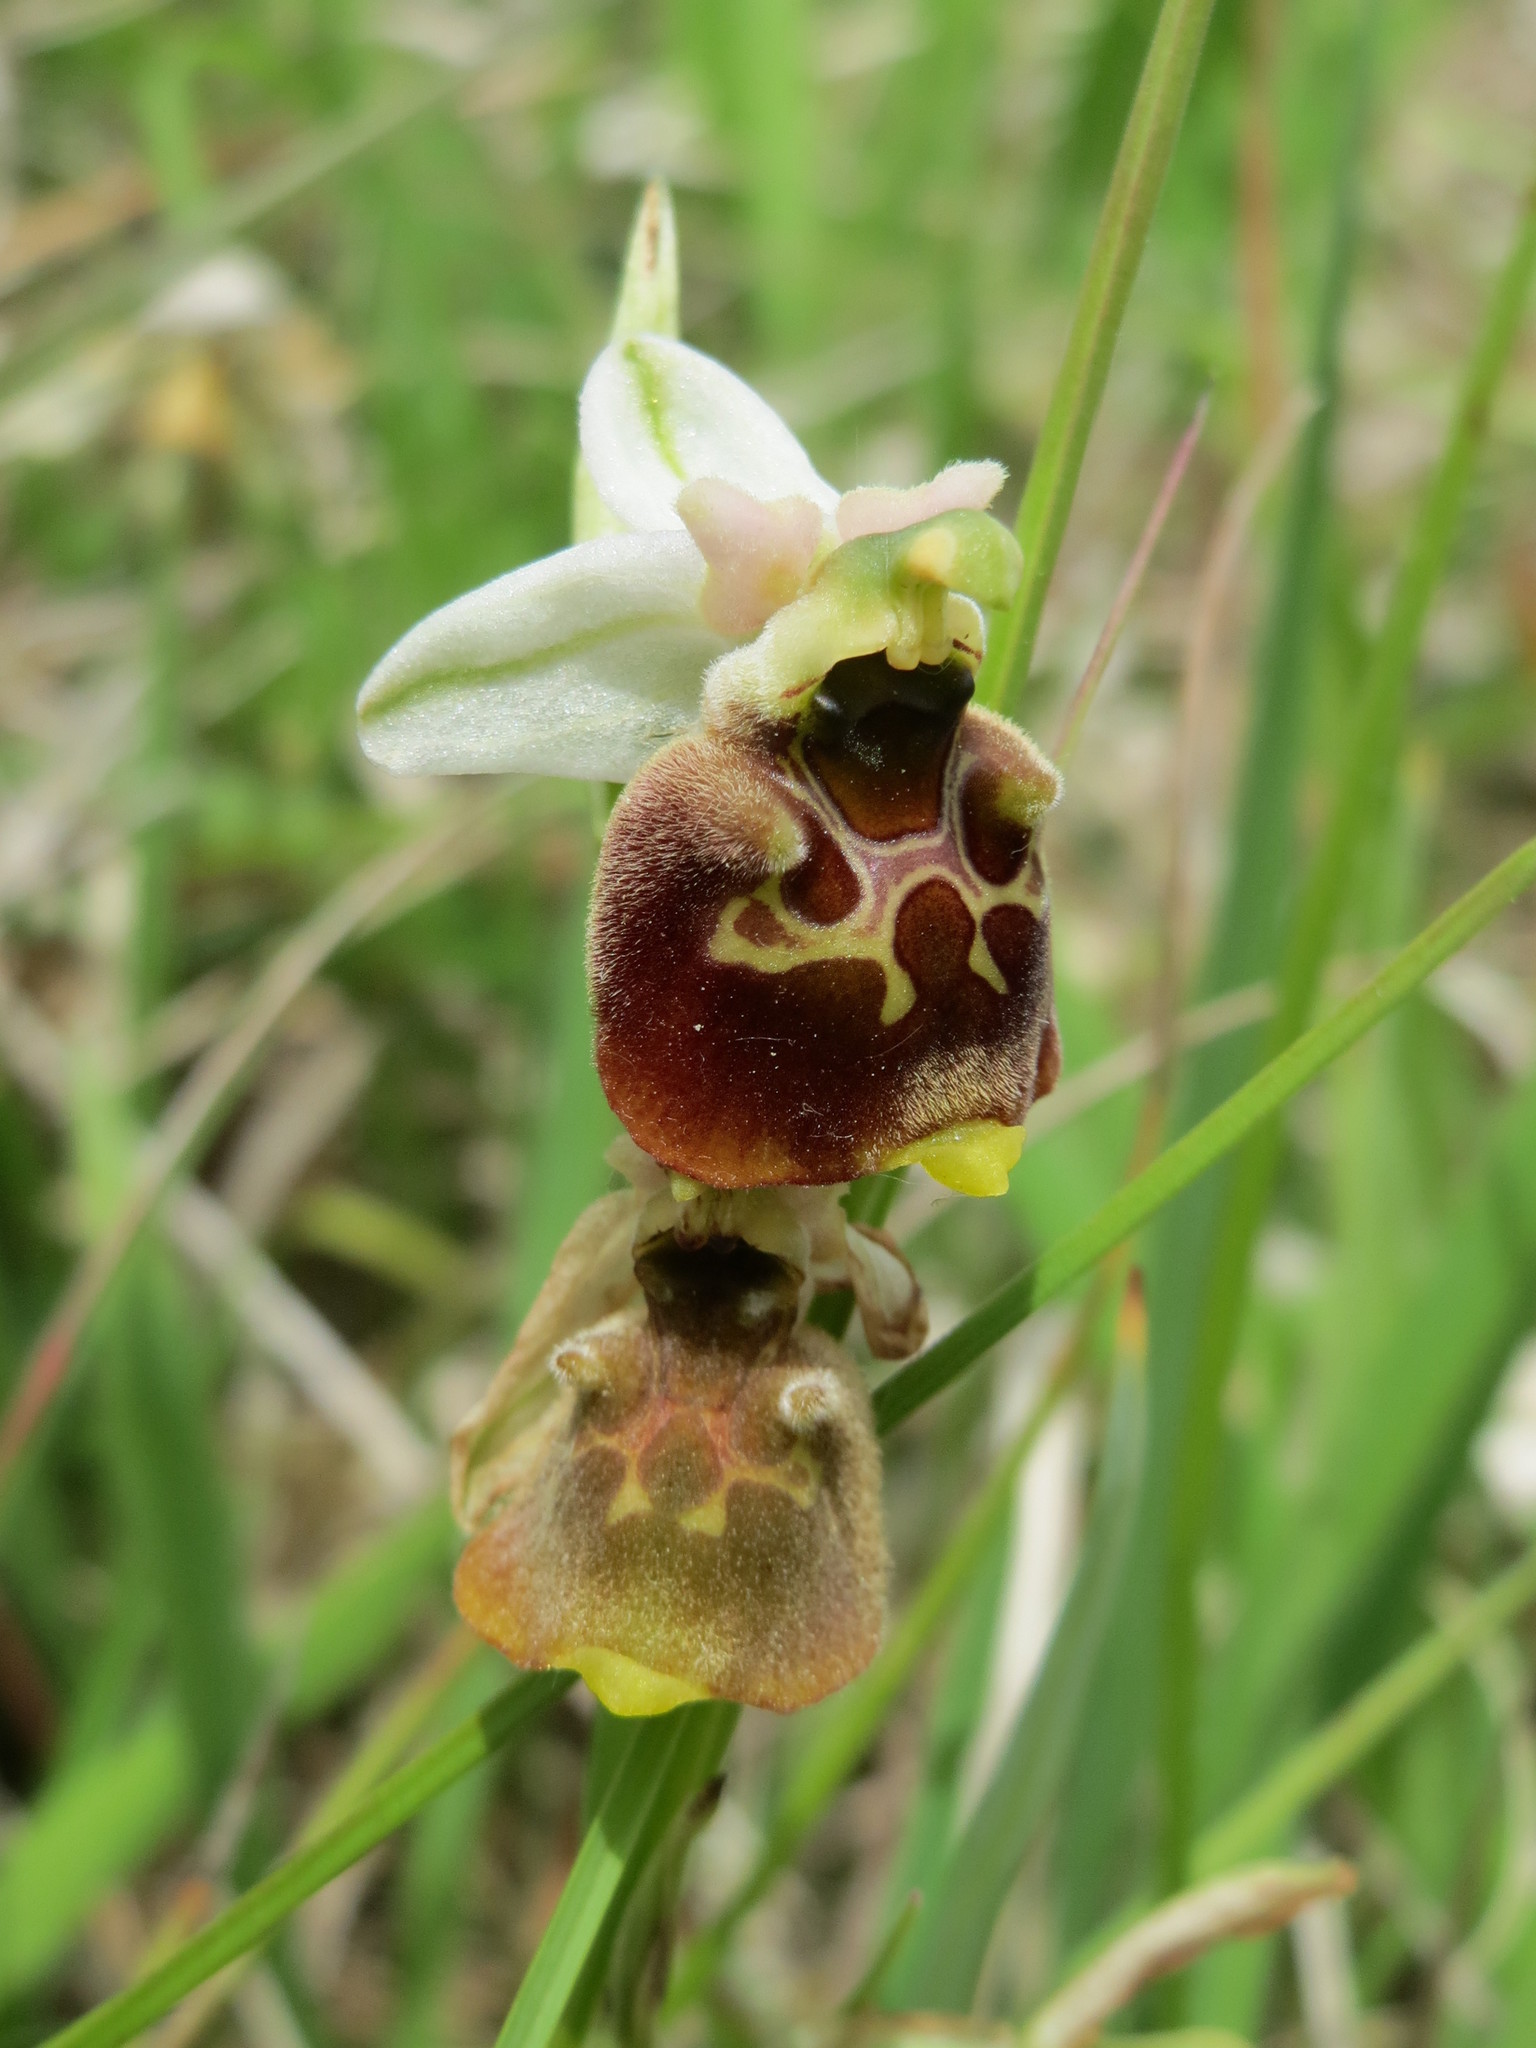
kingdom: Plantae
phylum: Tracheophyta
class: Liliopsida
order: Asparagales
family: Orchidaceae
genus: Ophrys
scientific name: Ophrys holosericea
